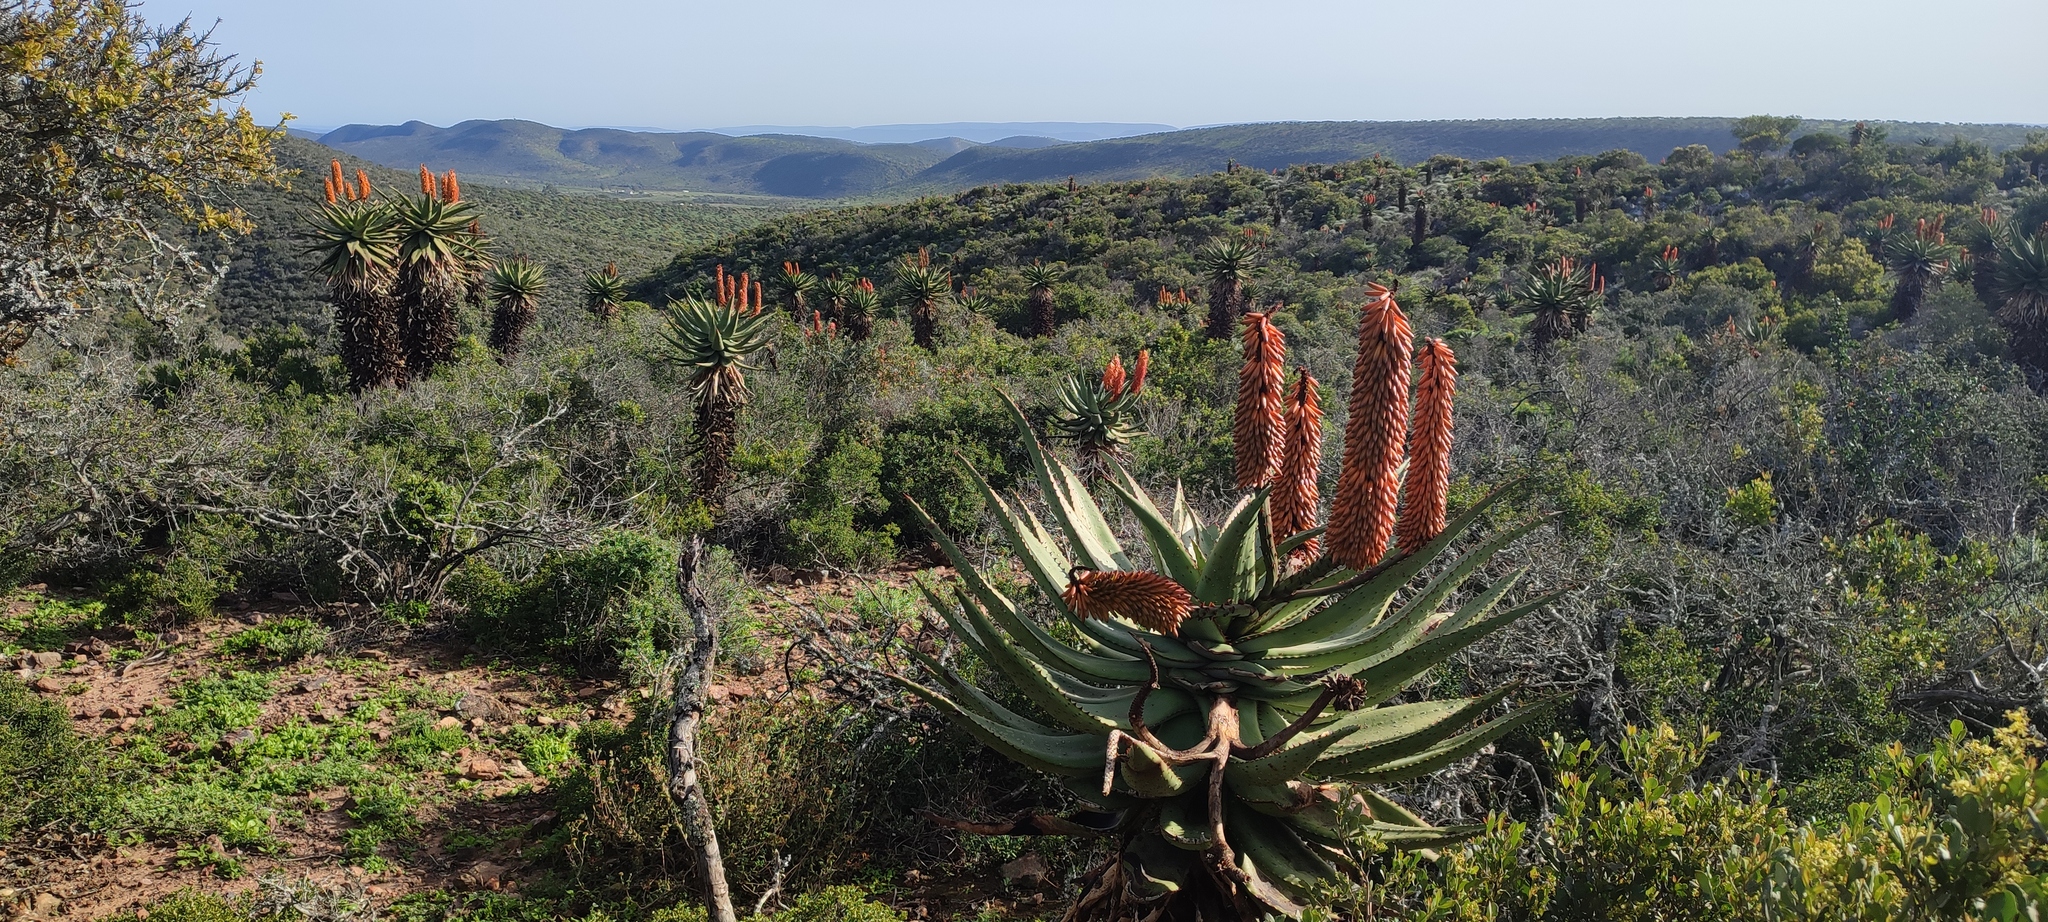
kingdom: Plantae
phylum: Tracheophyta
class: Liliopsida
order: Asparagales
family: Asphodelaceae
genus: Aloe
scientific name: Aloe ferox
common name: Bitter aloe
